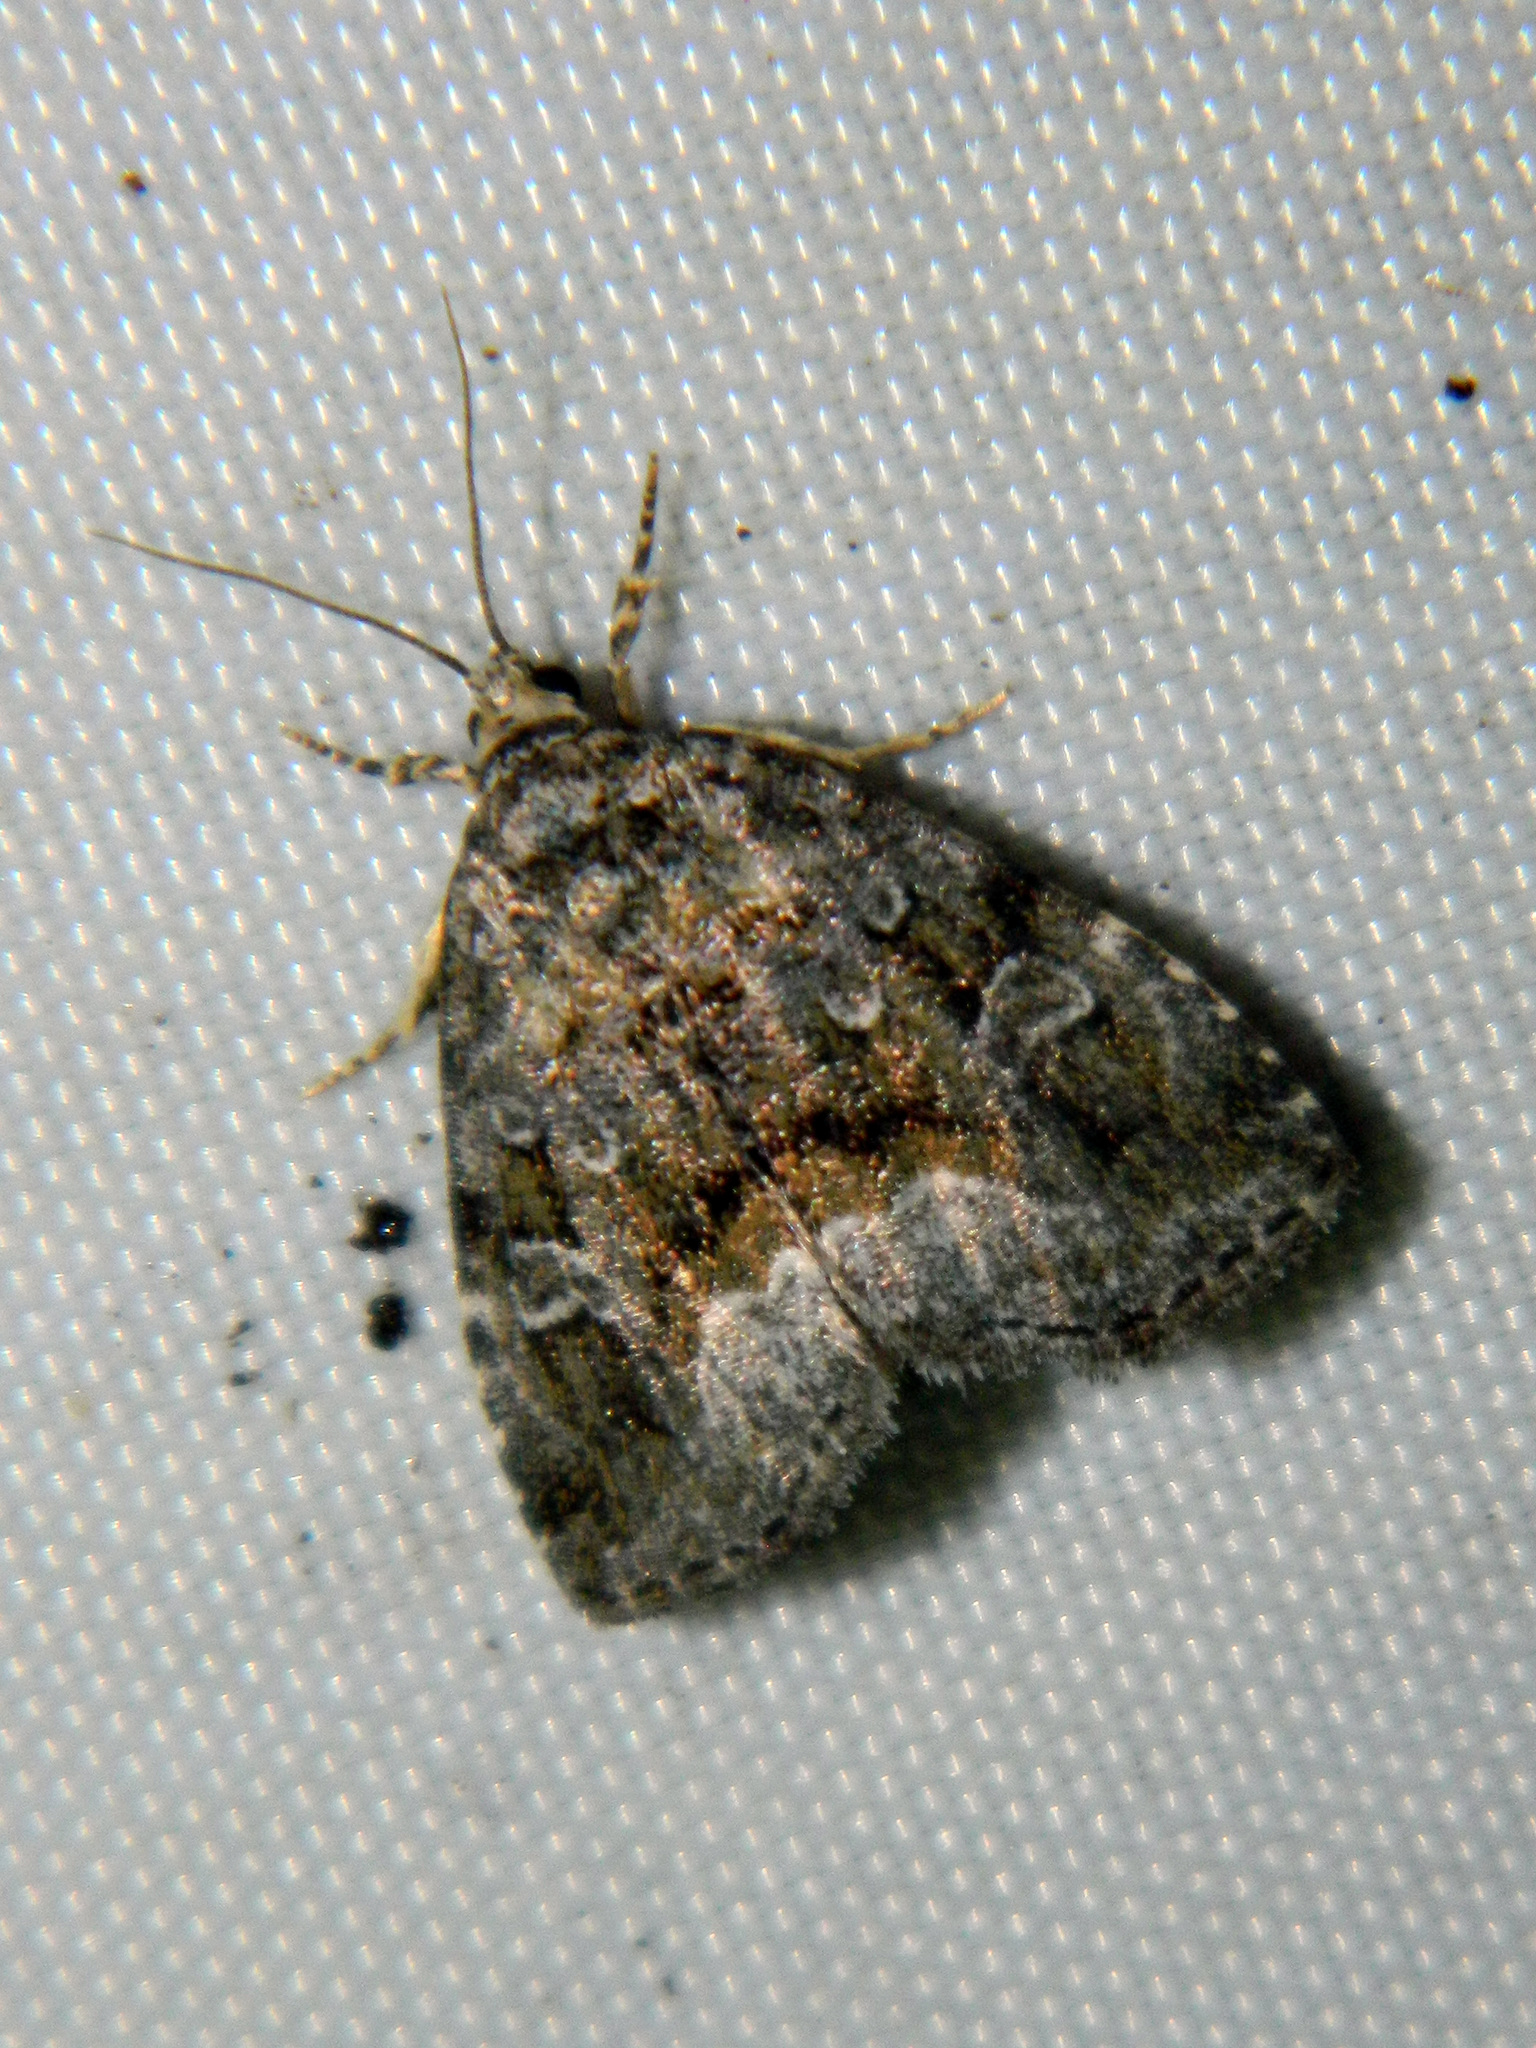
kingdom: Animalia
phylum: Arthropoda
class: Insecta
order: Lepidoptera
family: Noctuidae
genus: Protodeltote
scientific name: Protodeltote muscosula
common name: Large mossy glyph
